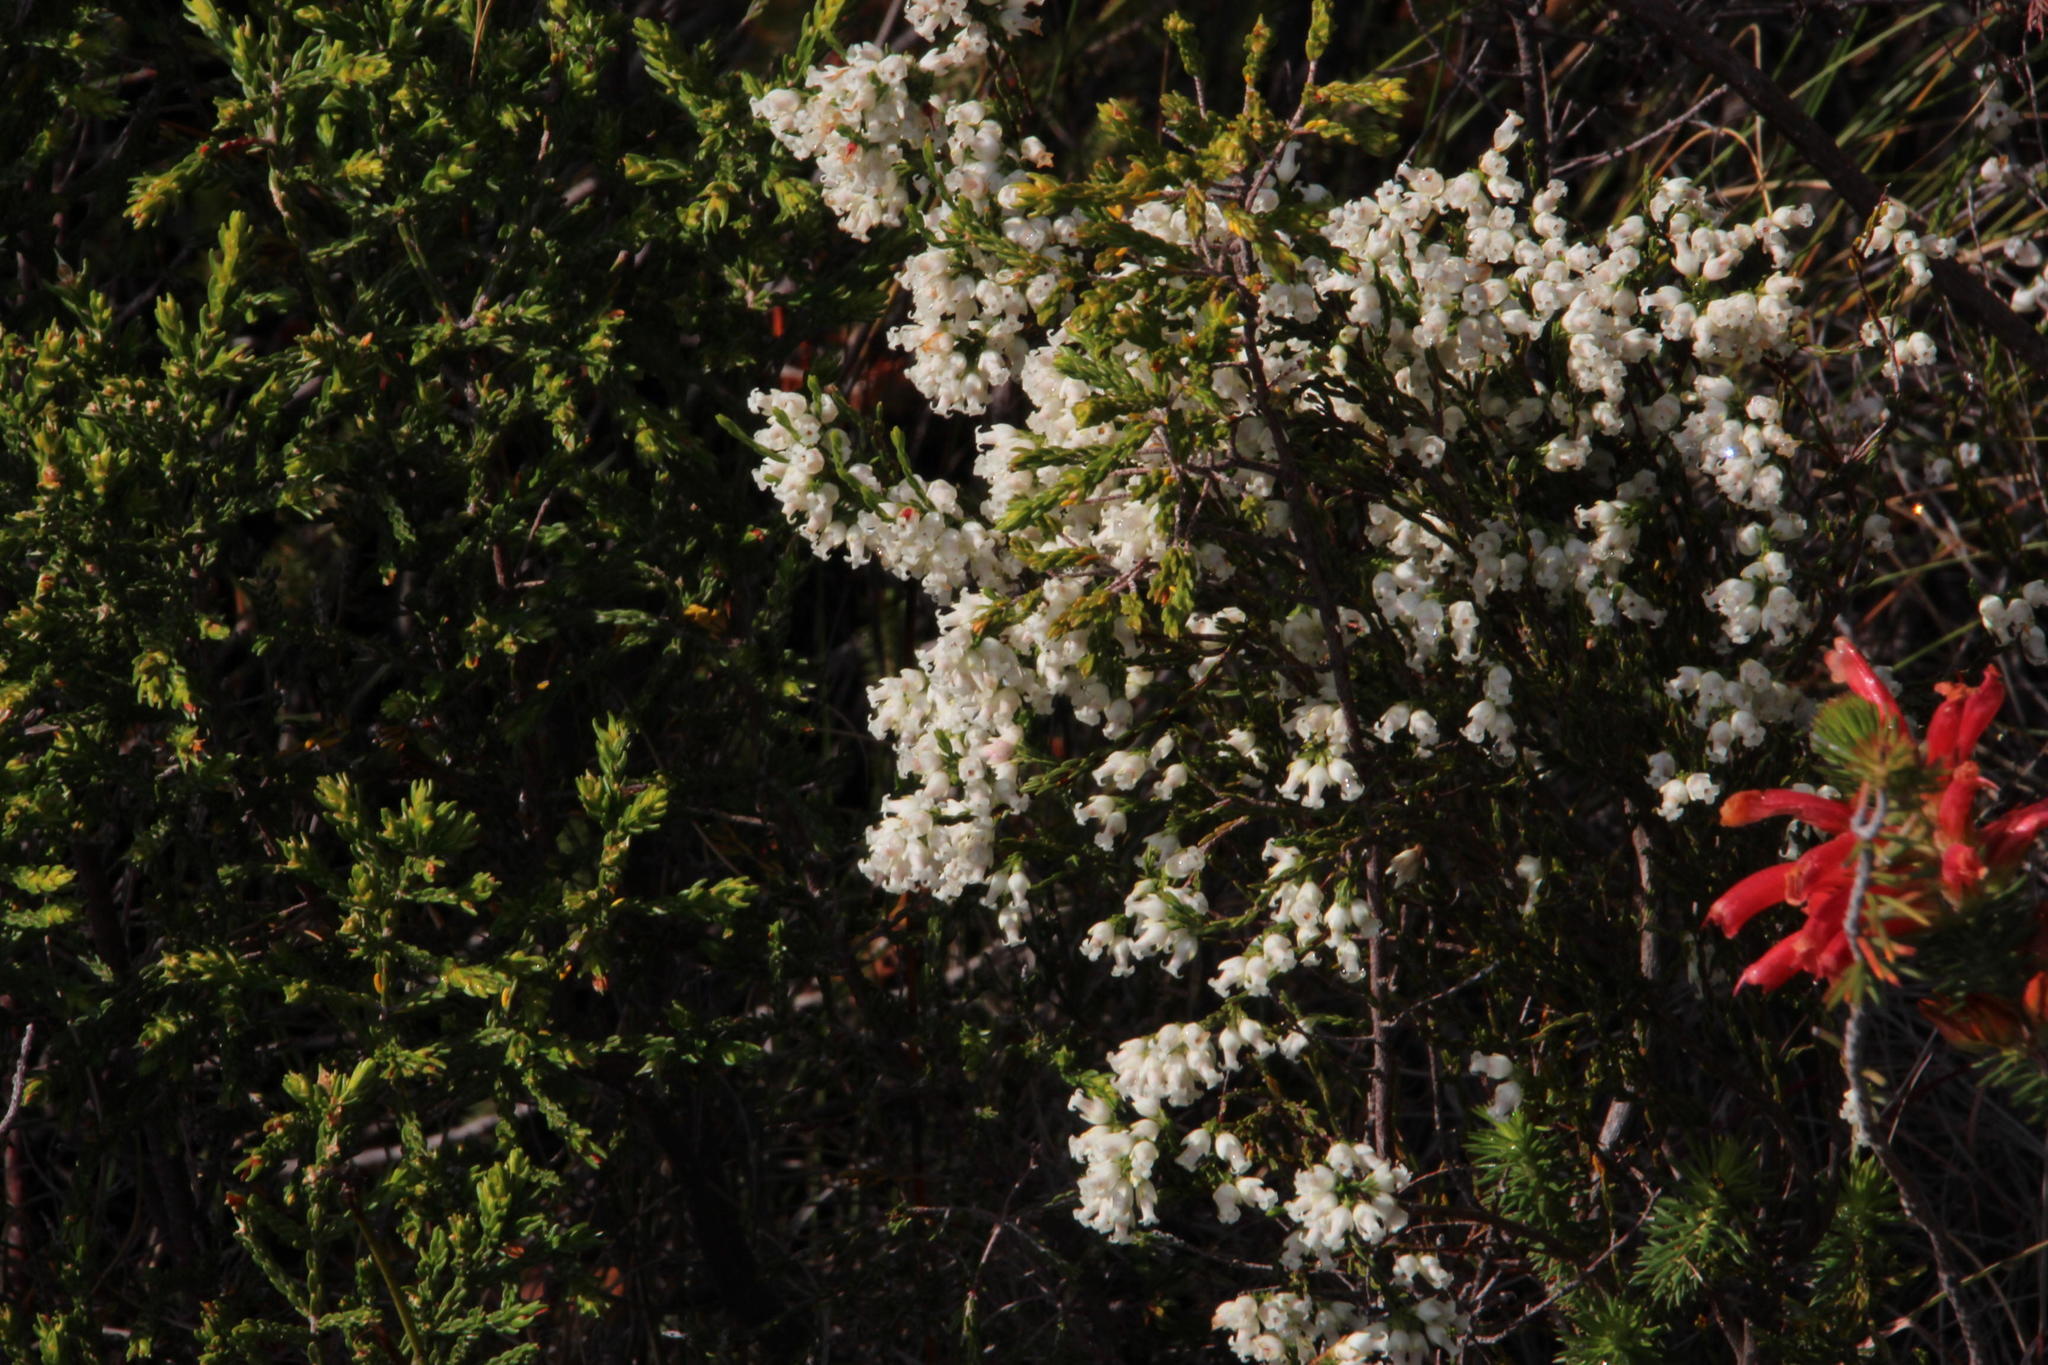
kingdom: Plantae
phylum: Tracheophyta
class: Magnoliopsida
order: Ericales
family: Ericaceae
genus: Erica
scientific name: Erica lutea
